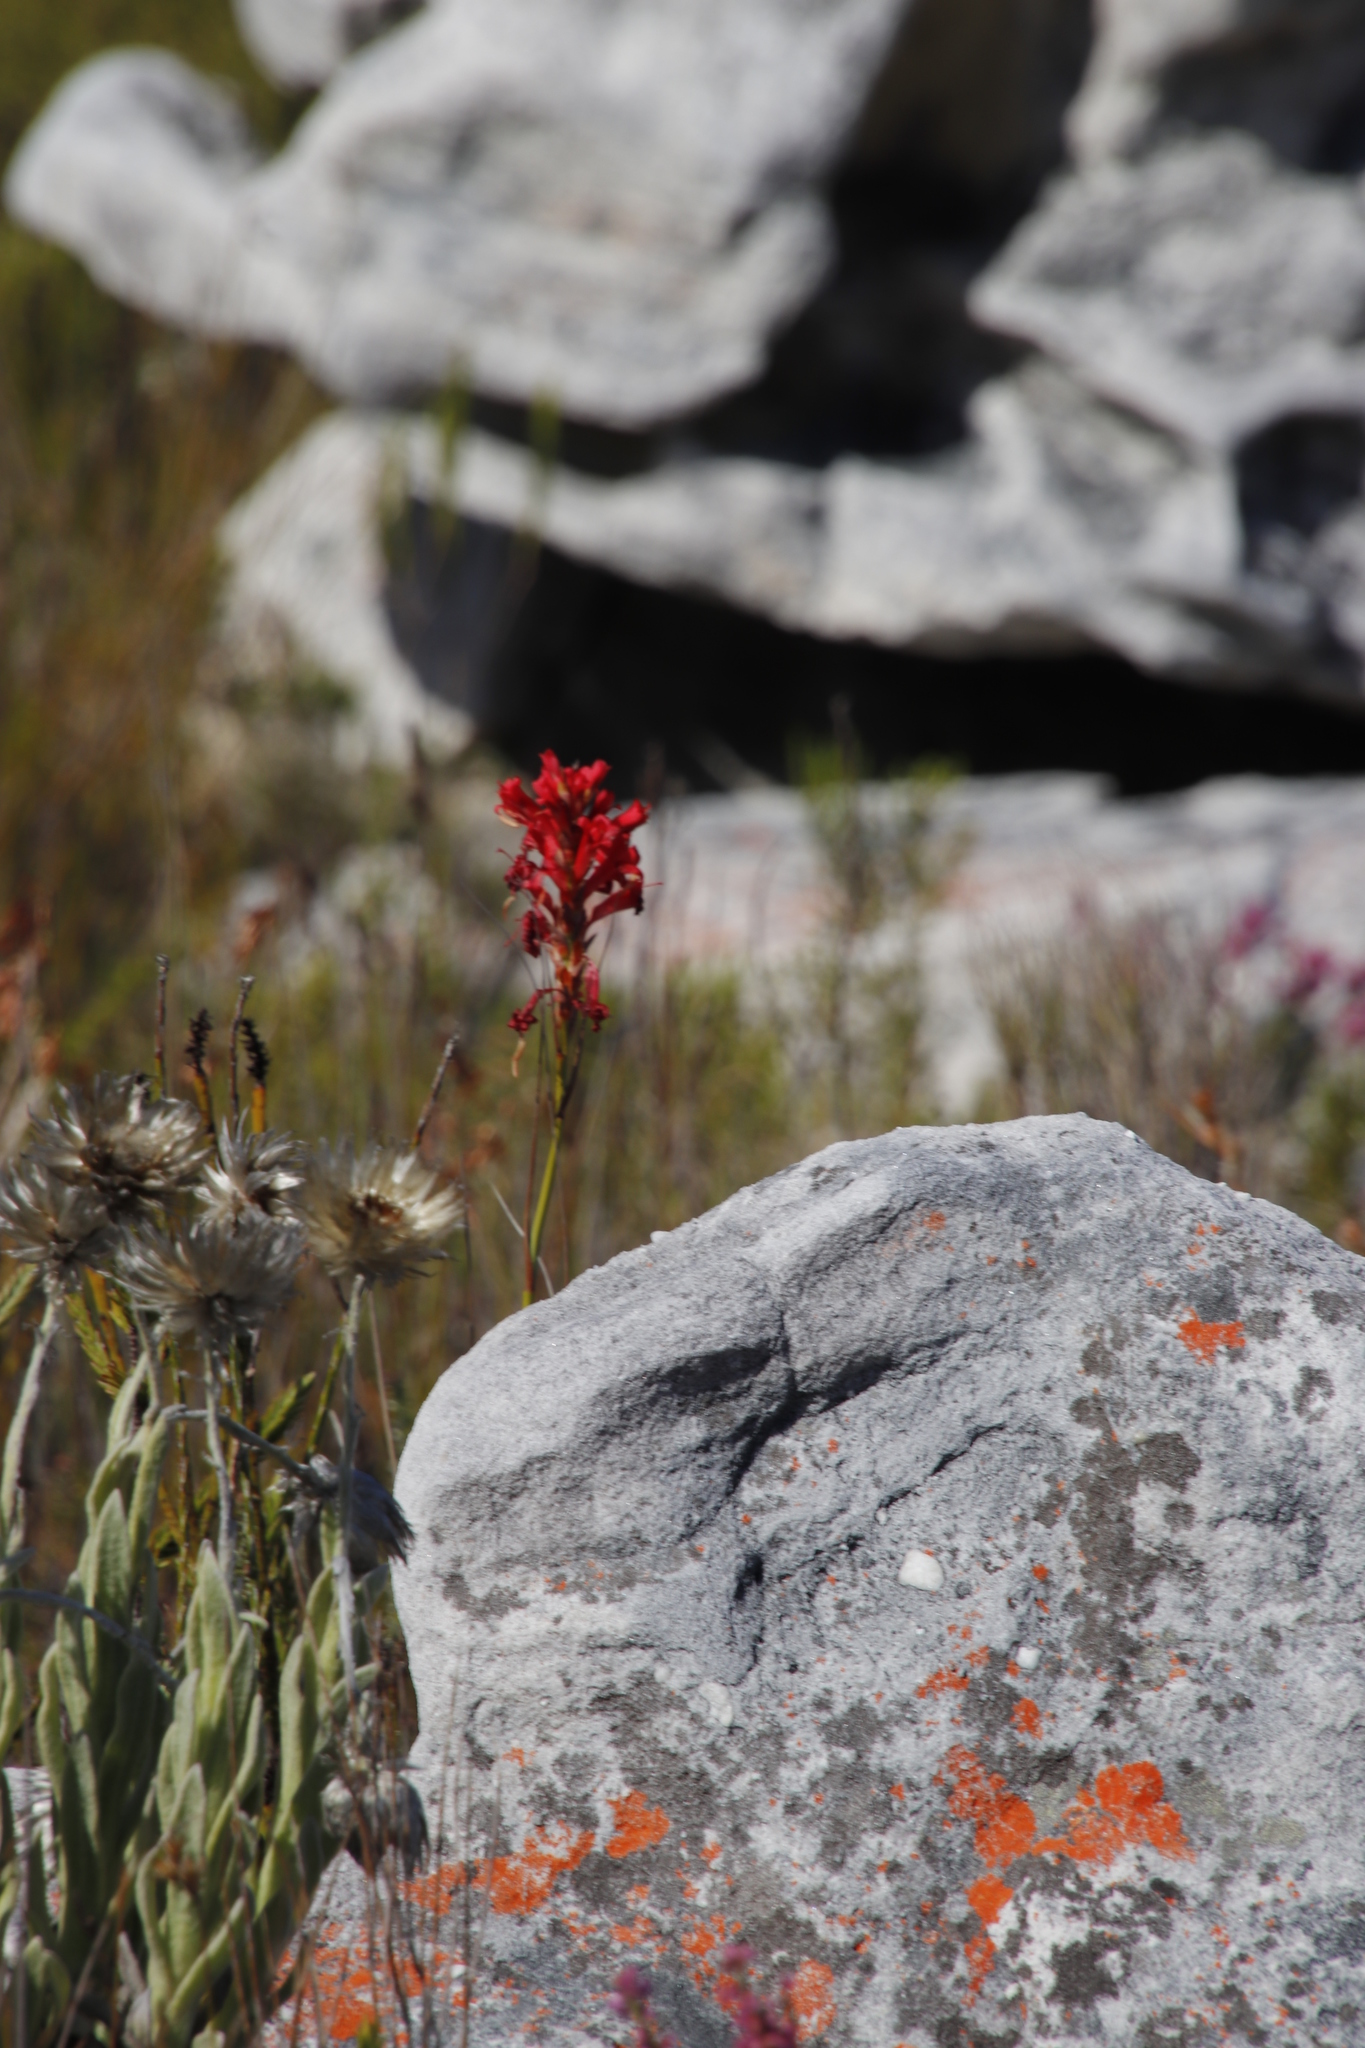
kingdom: Plantae
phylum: Tracheophyta
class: Liliopsida
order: Asparagales
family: Iridaceae
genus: Tritoniopsis
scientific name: Tritoniopsis triticea
